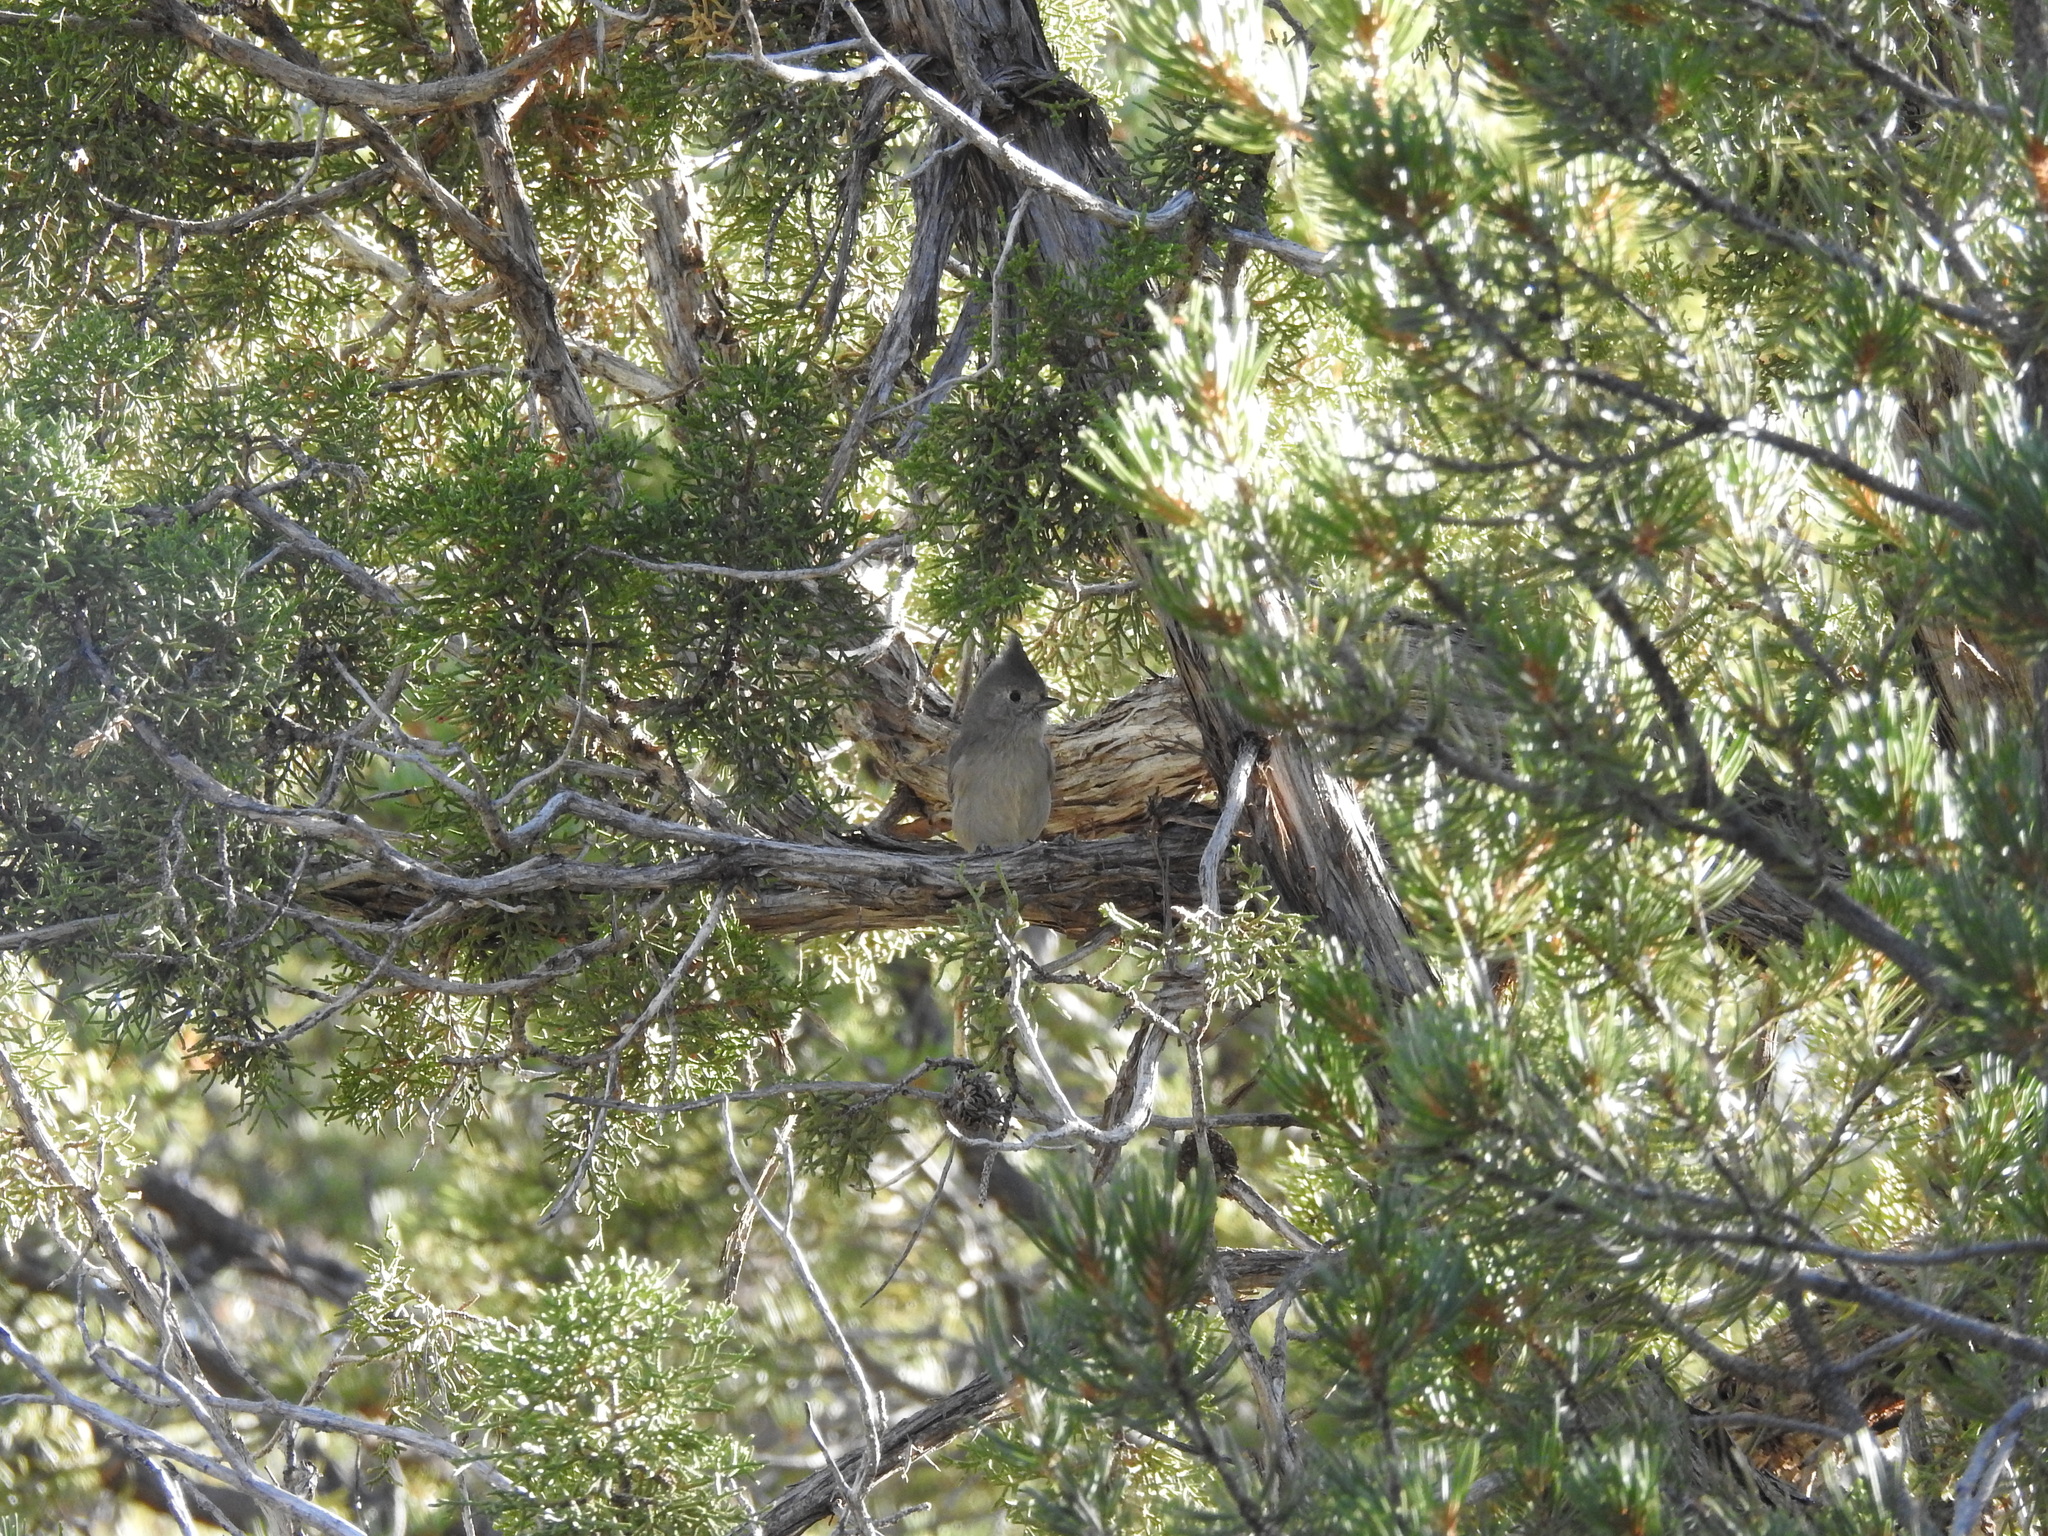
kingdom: Animalia
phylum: Chordata
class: Aves
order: Passeriformes
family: Paridae
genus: Baeolophus
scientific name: Baeolophus ridgwayi
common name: Juniper titmouse
